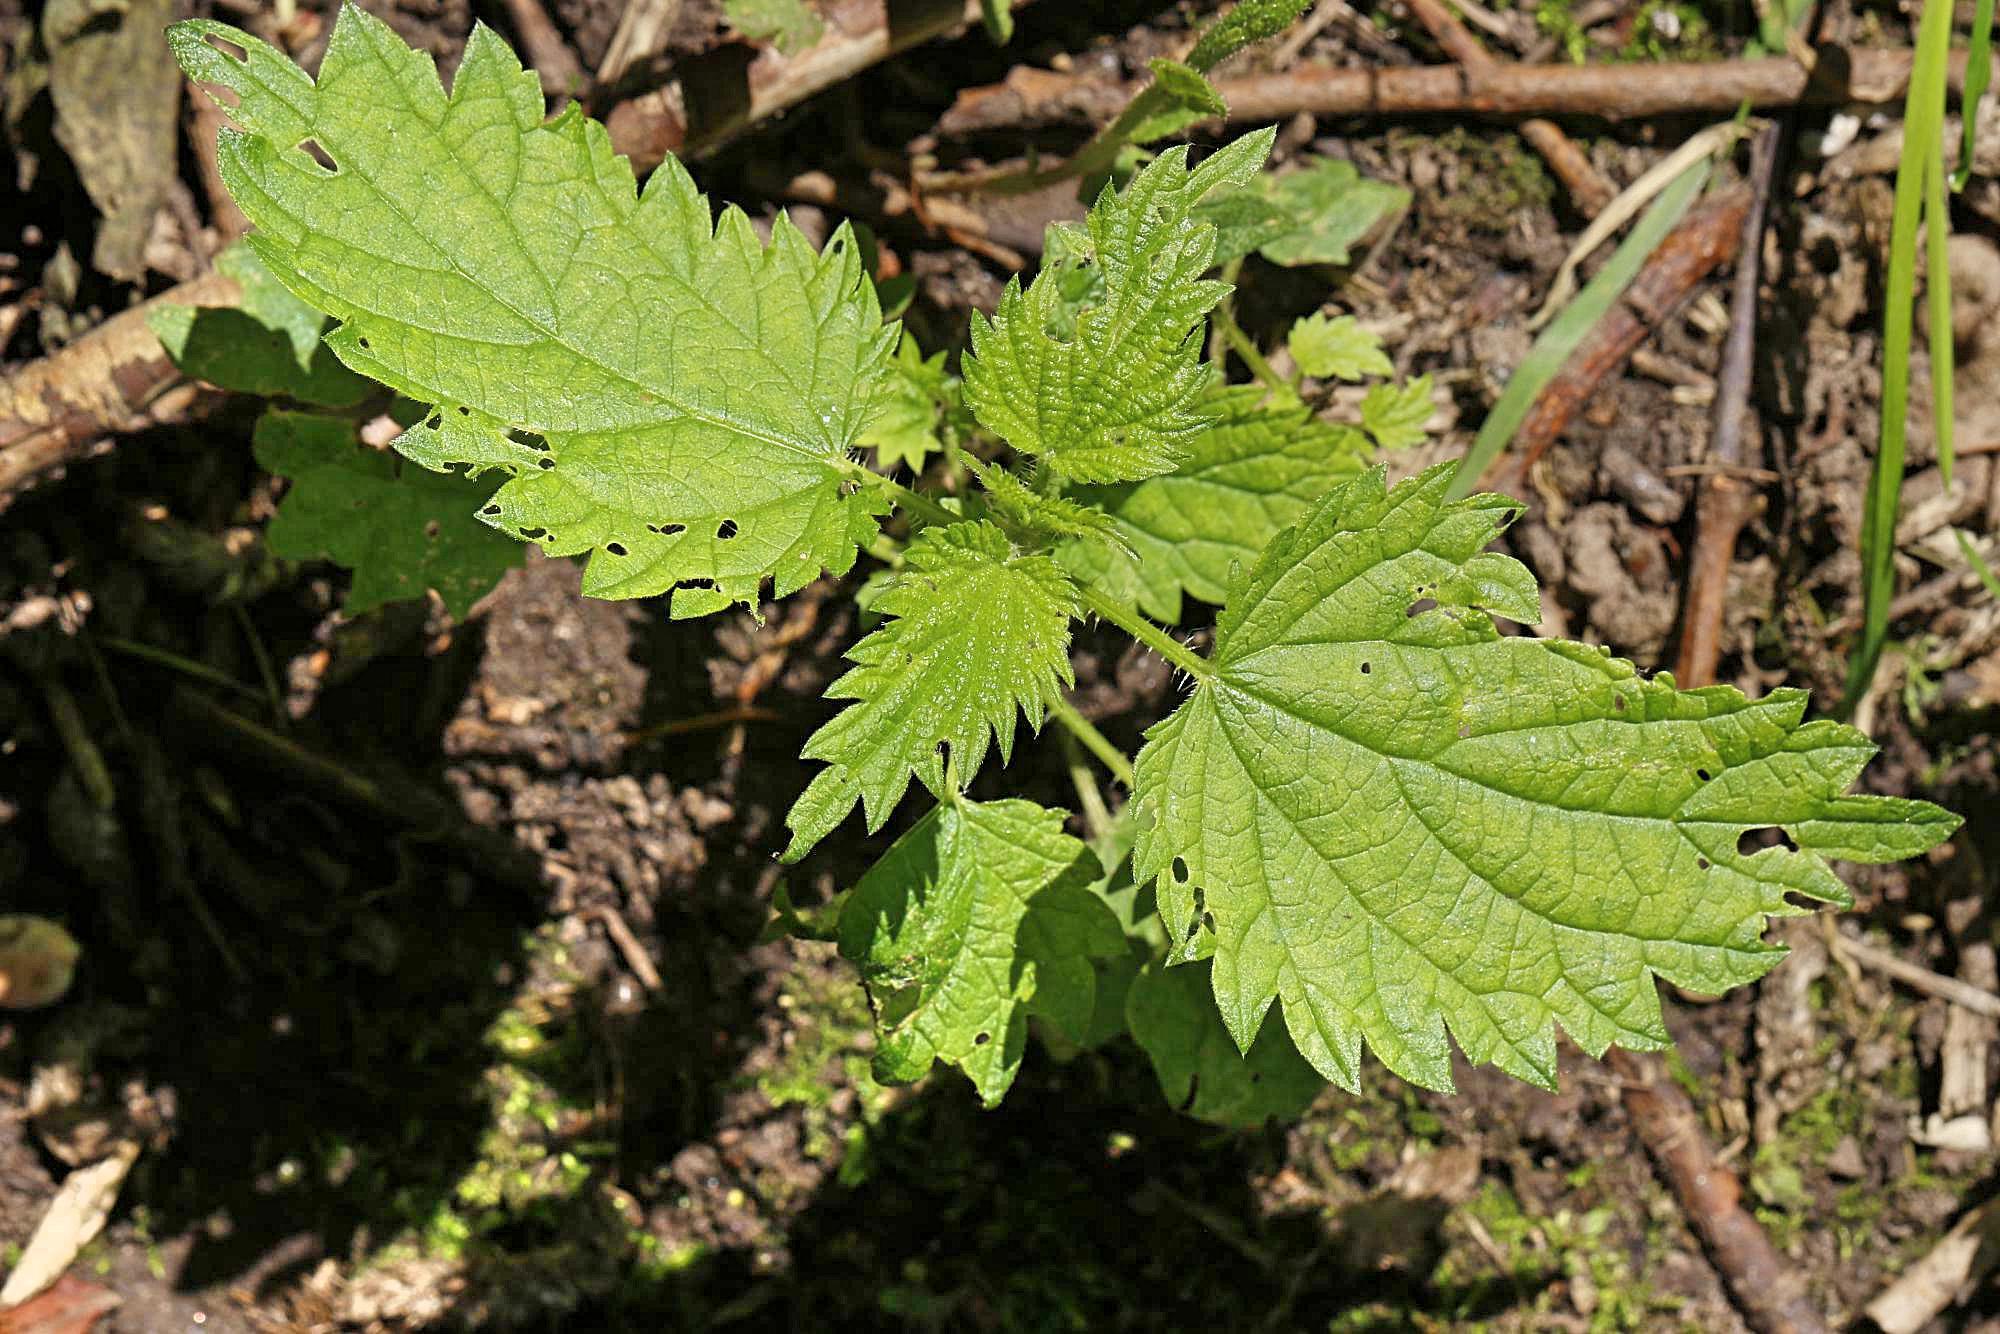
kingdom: Plantae
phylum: Tracheophyta
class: Magnoliopsida
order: Rosales
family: Urticaceae
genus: Urtica
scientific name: Urtica dioica
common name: Common nettle
